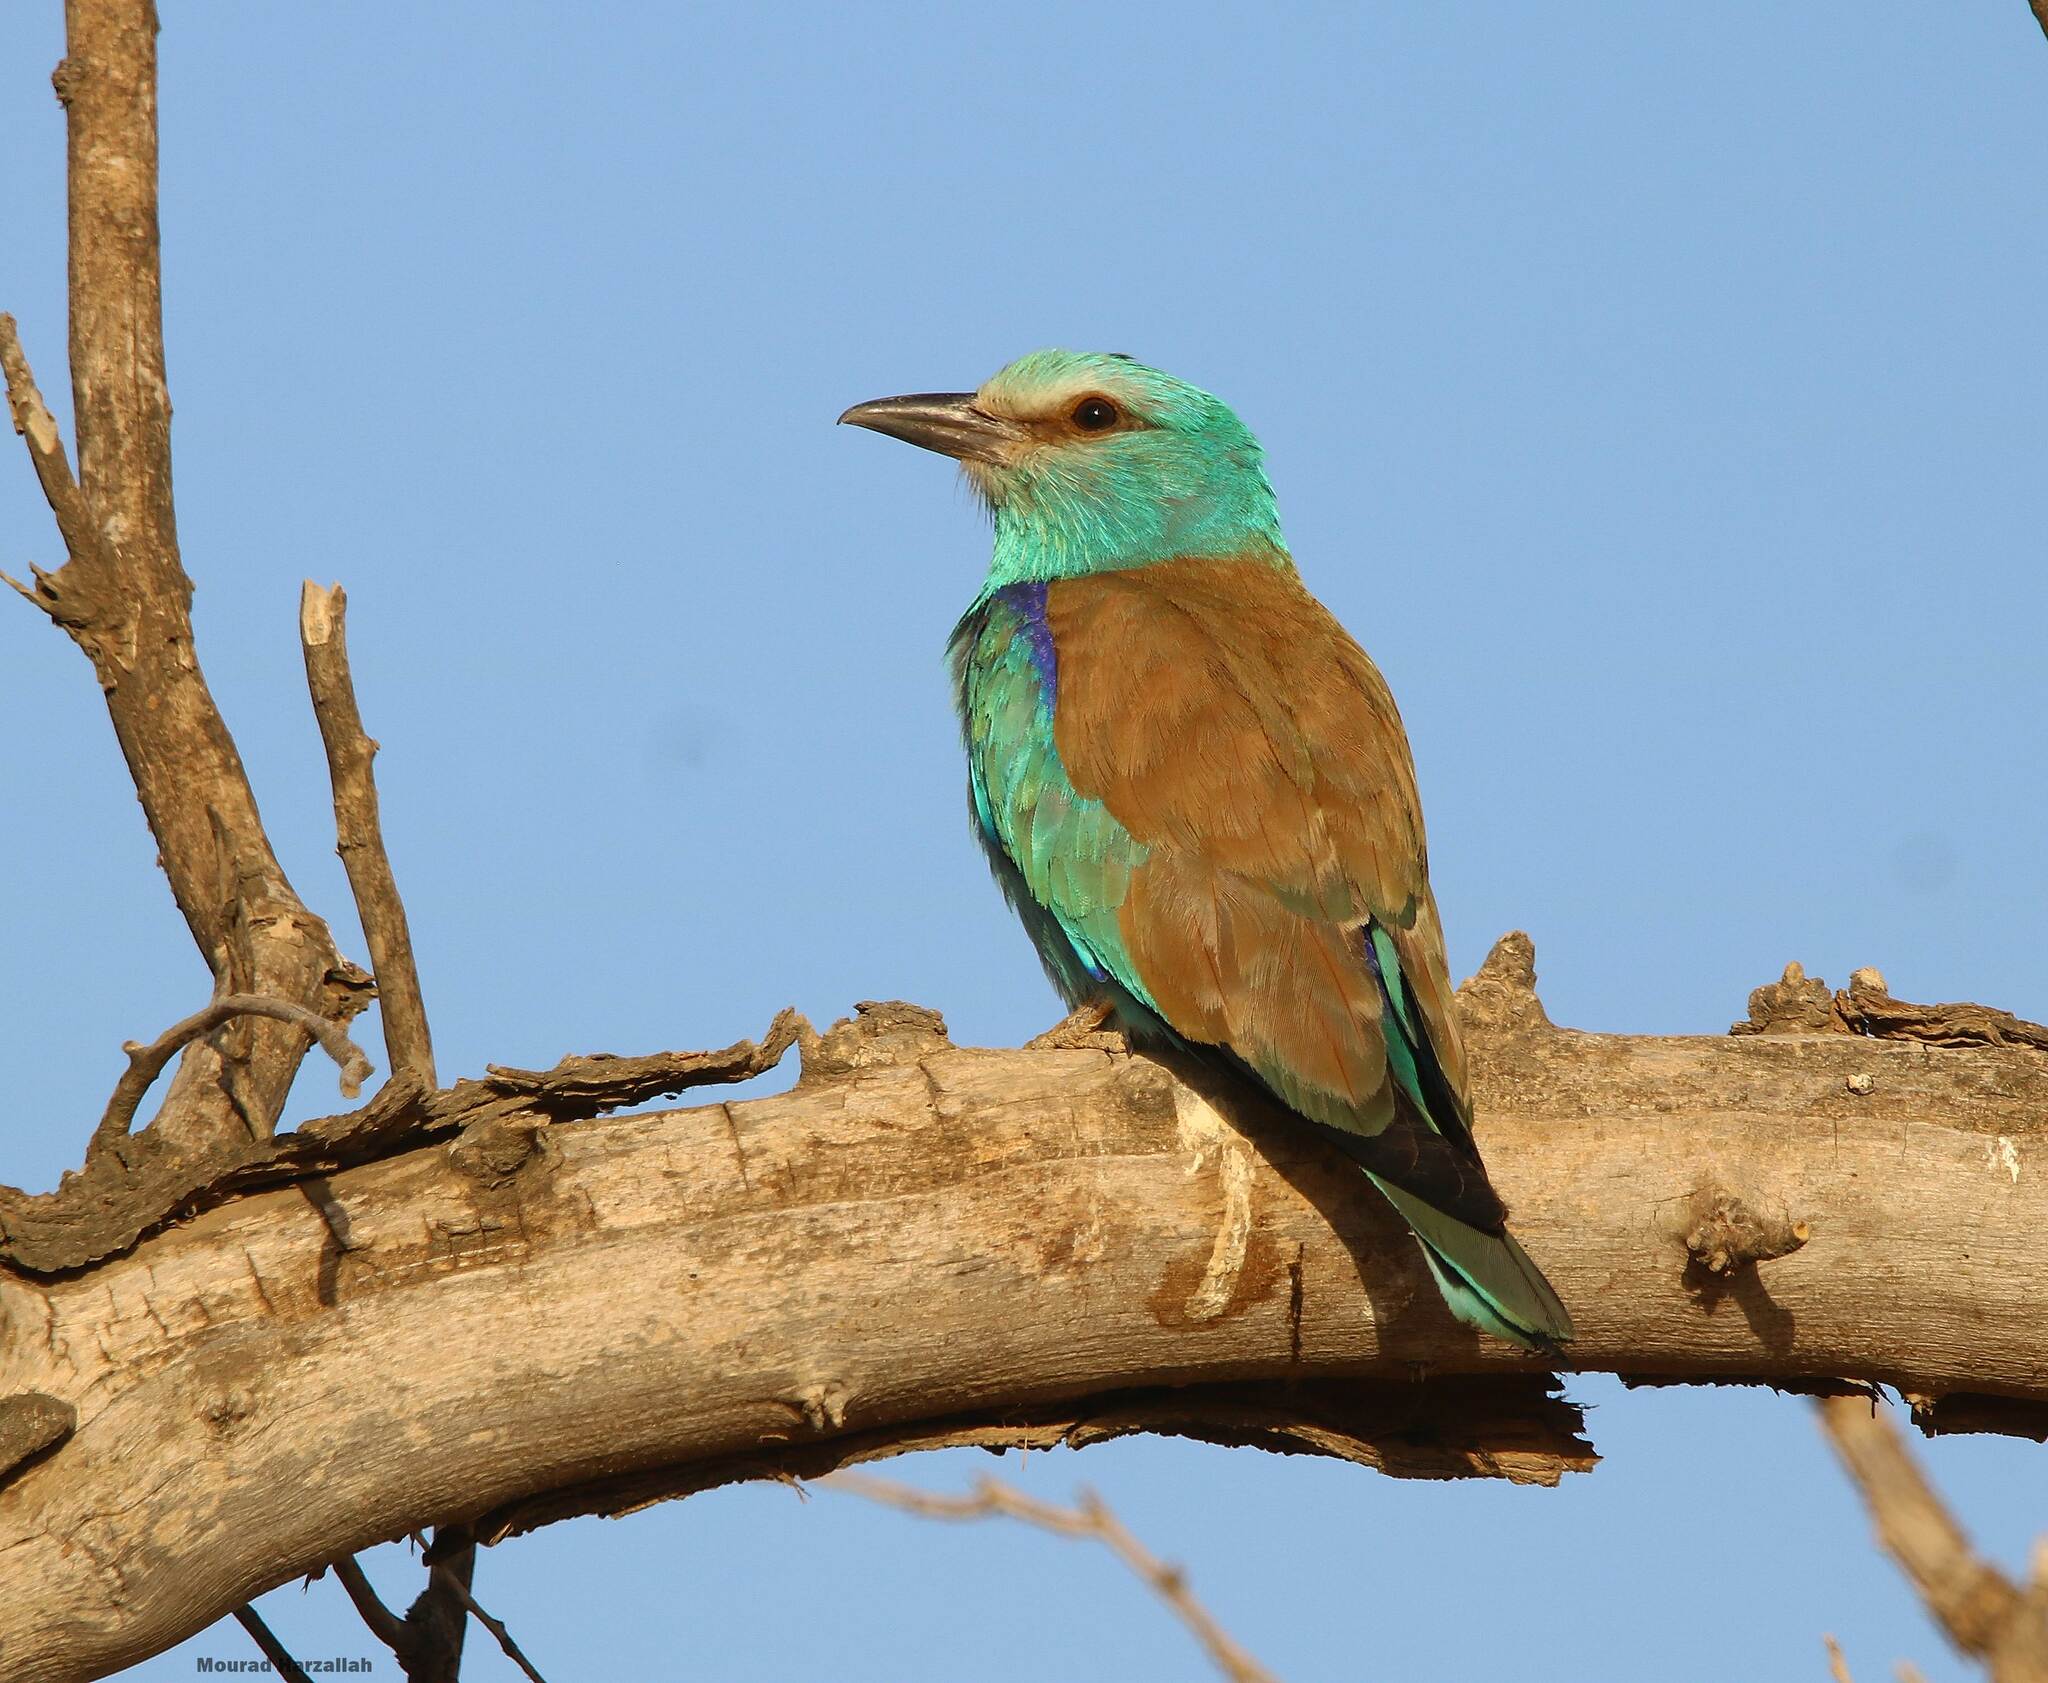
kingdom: Animalia
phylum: Chordata
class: Aves
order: Coraciiformes
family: Coraciidae
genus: Coracias
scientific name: Coracias garrulus
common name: European roller
